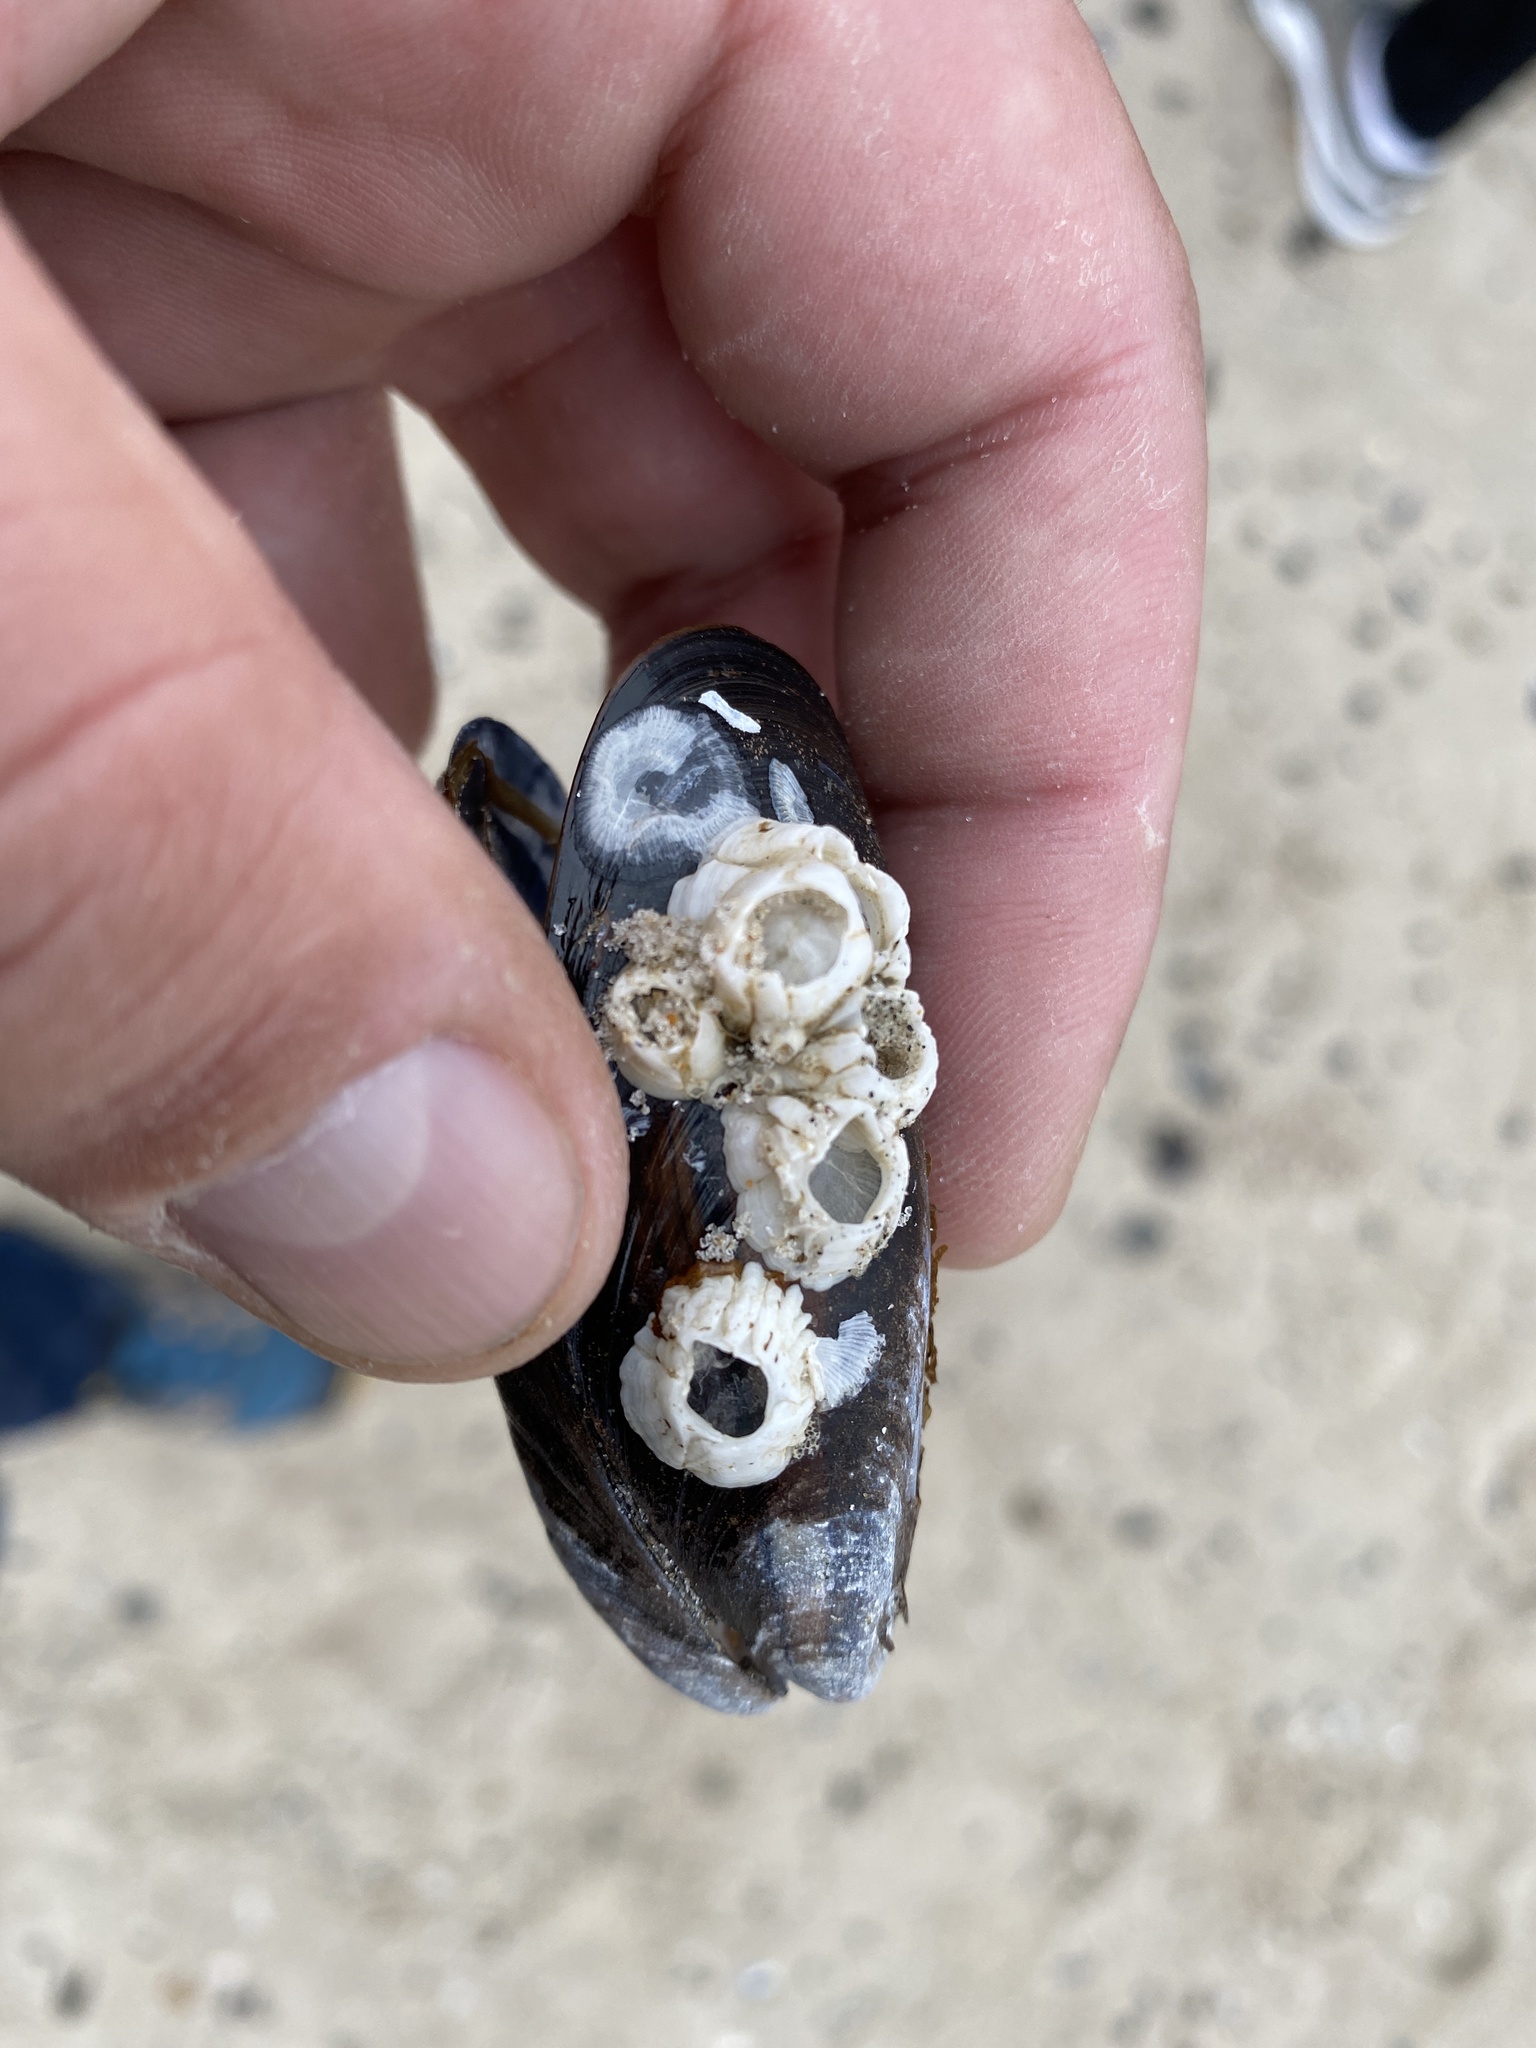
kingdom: Animalia
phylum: Arthropoda
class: Maxillopoda
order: Sessilia
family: Balanidae
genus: Balanus
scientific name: Balanus crenatus
